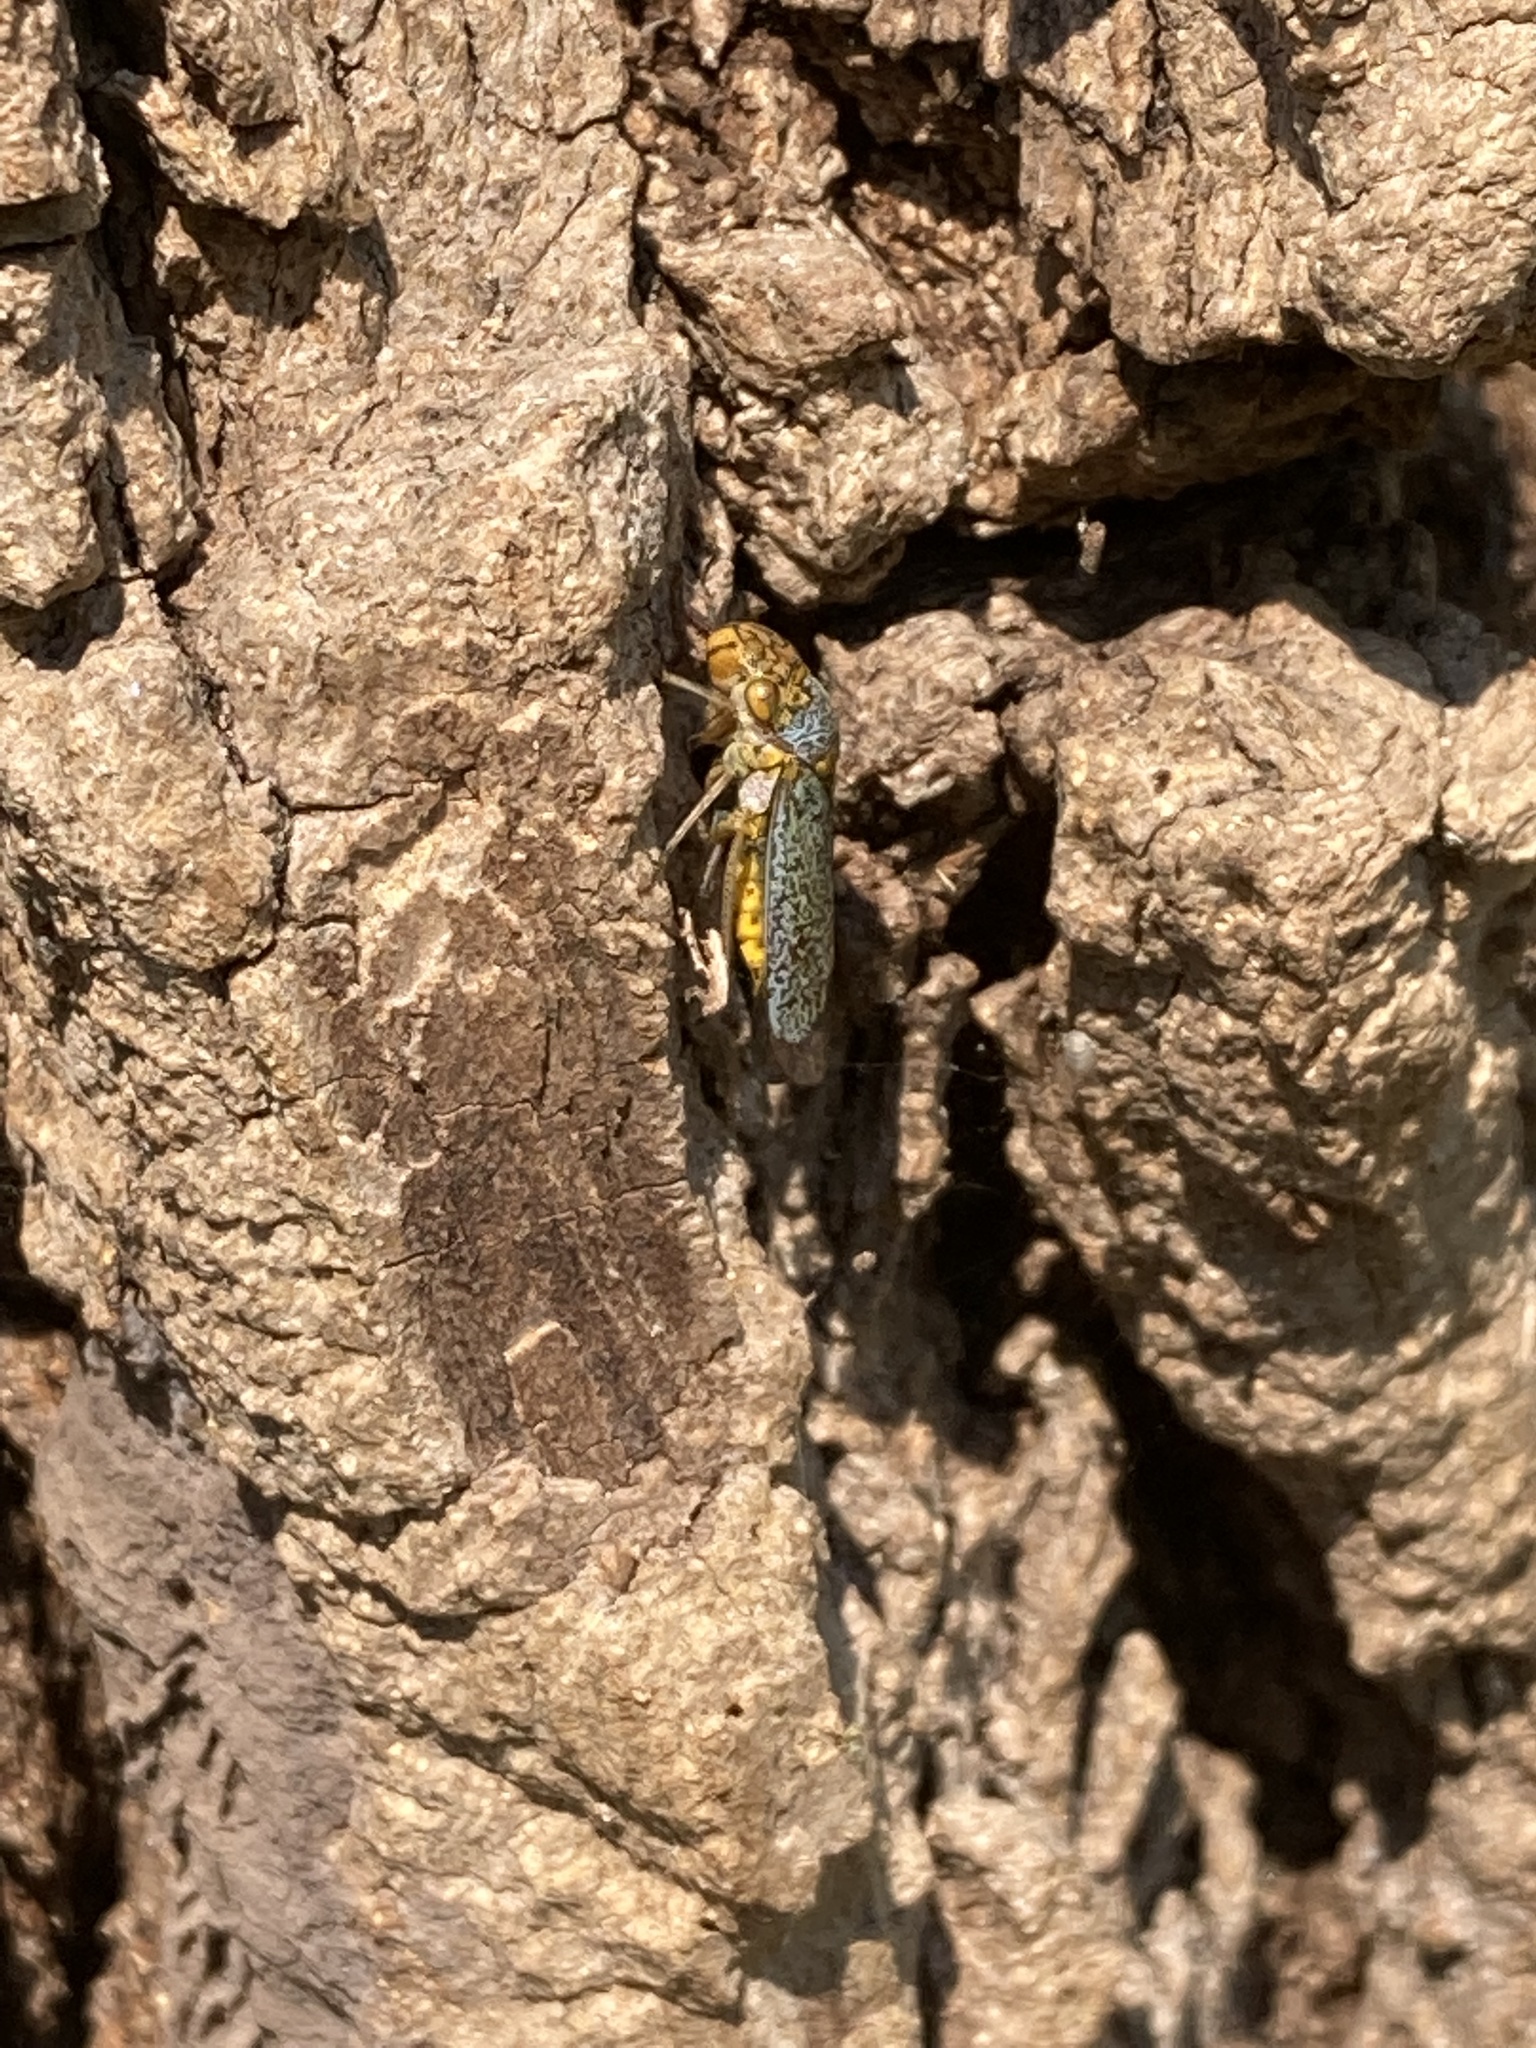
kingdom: Animalia
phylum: Arthropoda
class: Insecta
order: Hemiptera
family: Cicadellidae
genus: Oncometopia
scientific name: Oncometopia orbona
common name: Broad-headed sharpshooter
